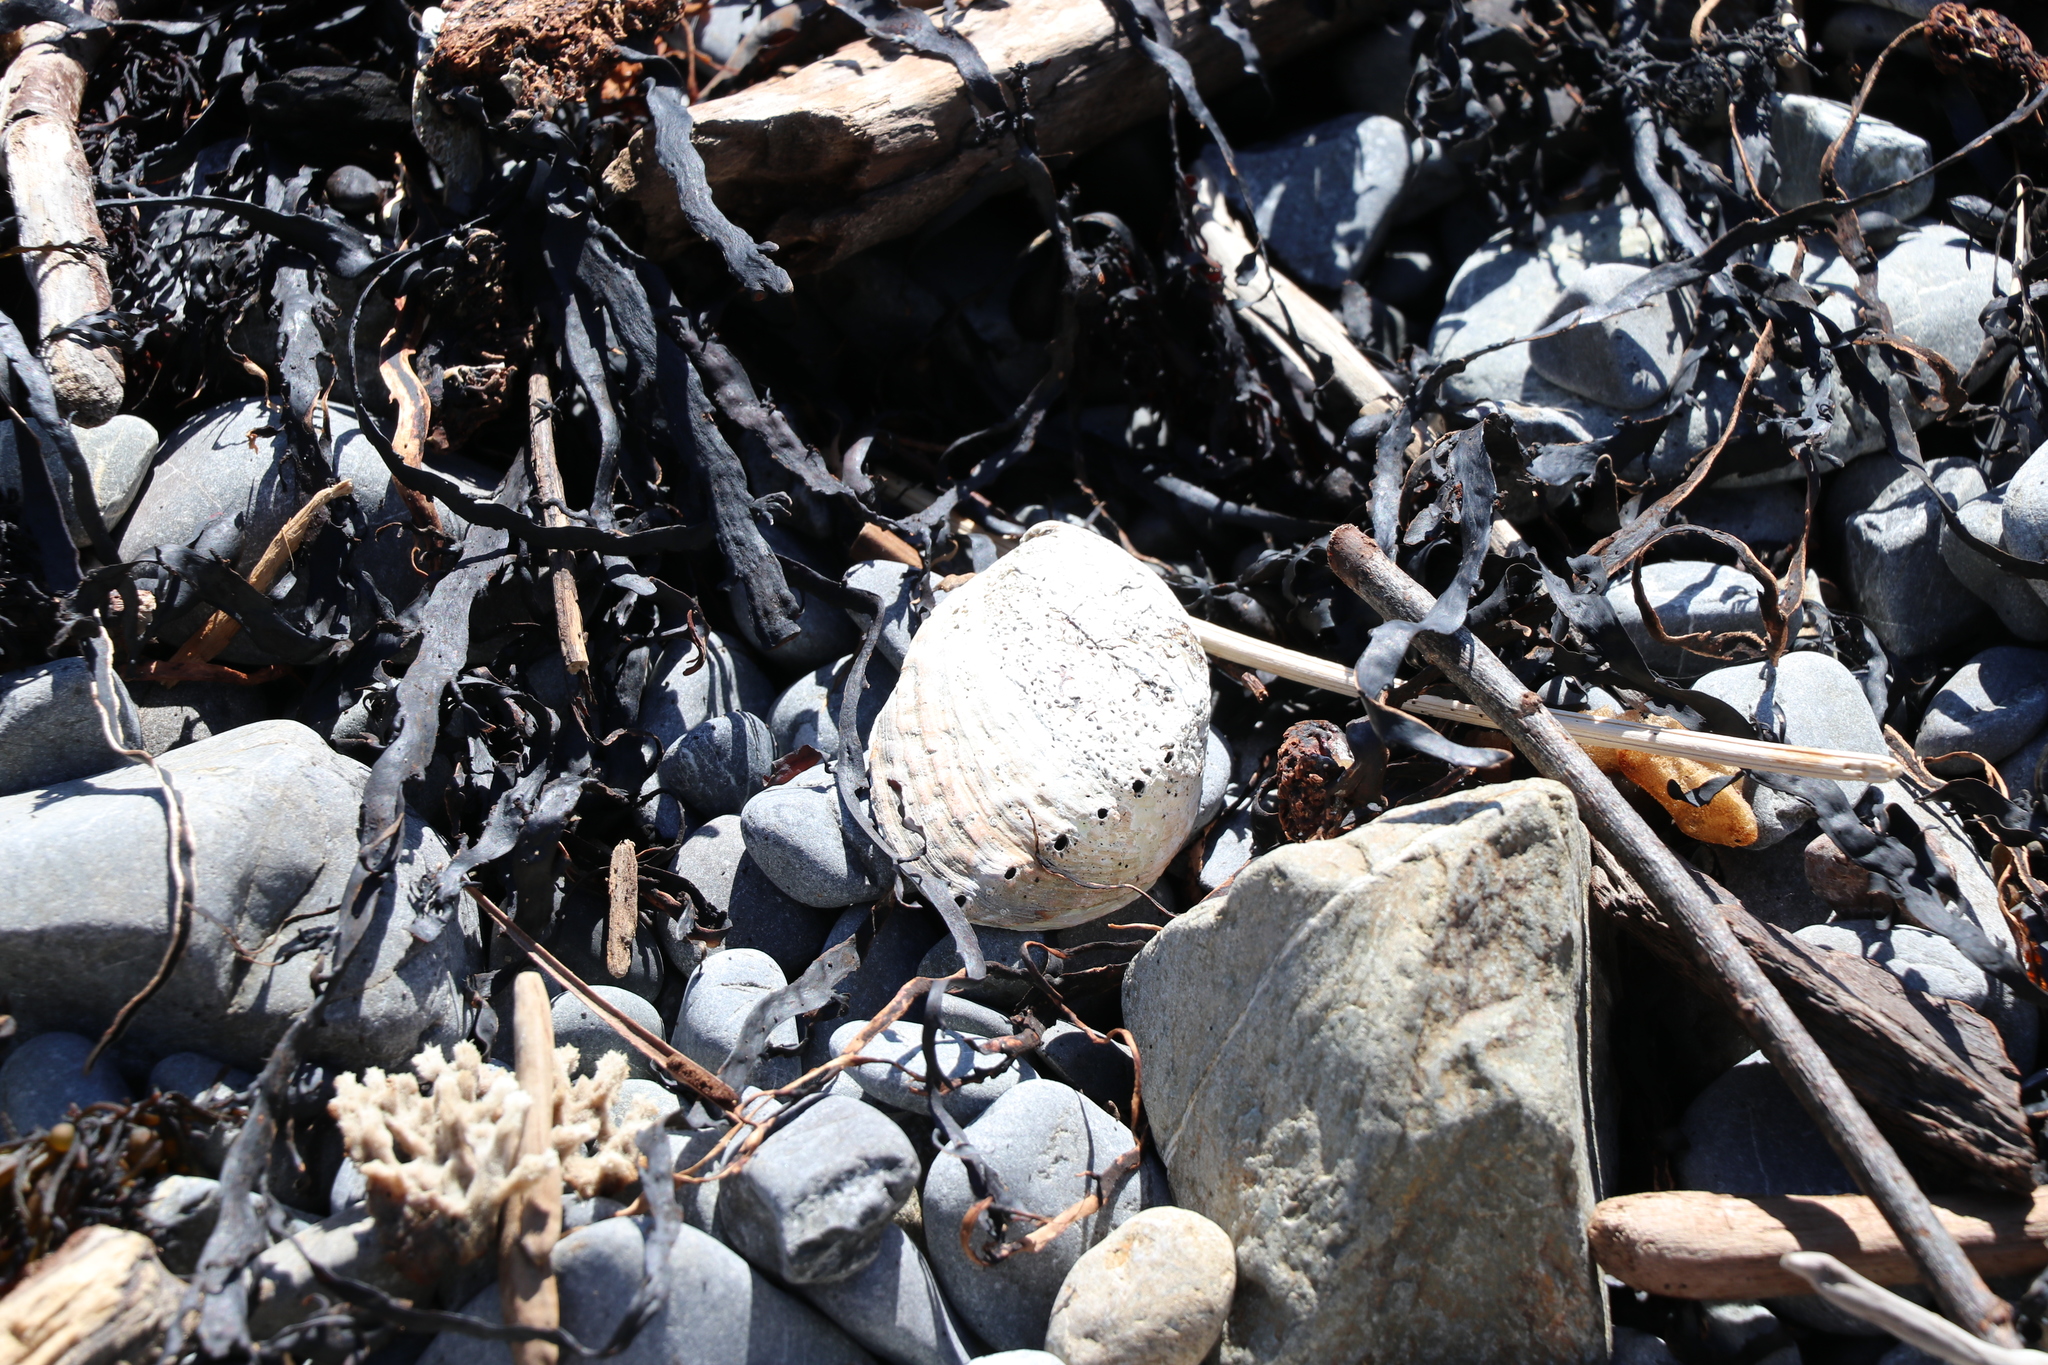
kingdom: Animalia
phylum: Mollusca
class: Gastropoda
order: Lepetellida
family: Haliotidae
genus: Haliotis
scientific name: Haliotis iris
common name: Abalone
